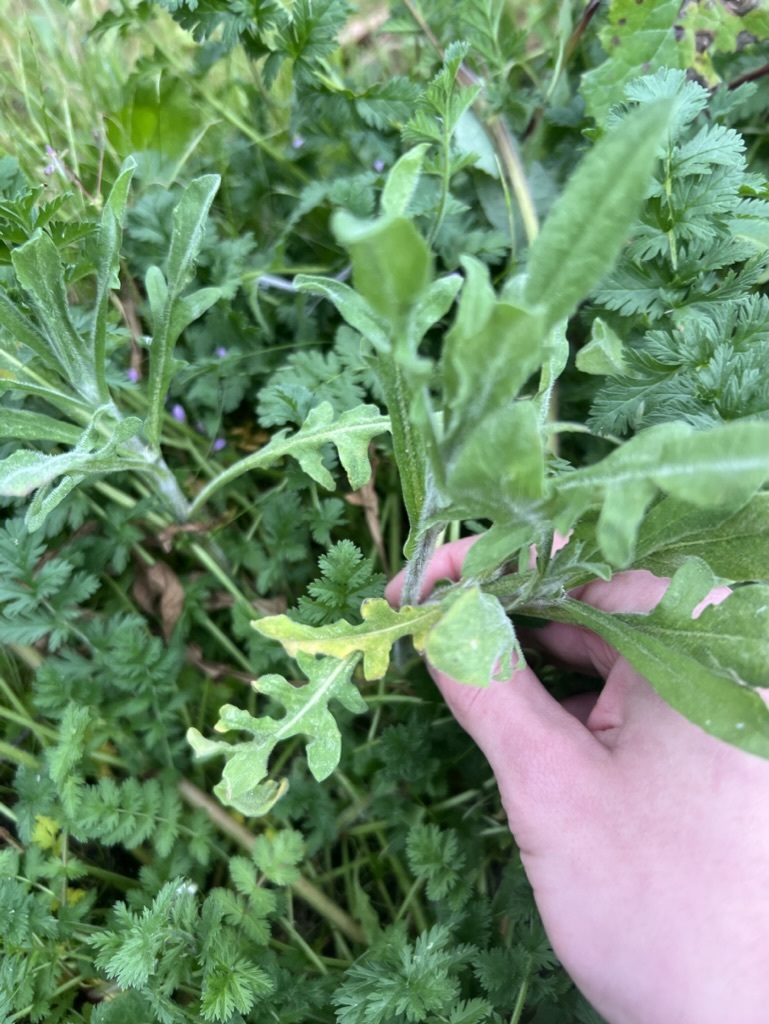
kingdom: Plantae
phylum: Tracheophyta
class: Magnoliopsida
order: Asterales
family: Asteraceae
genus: Centaurea
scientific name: Centaurea melitensis
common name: Maltese star-thistle
